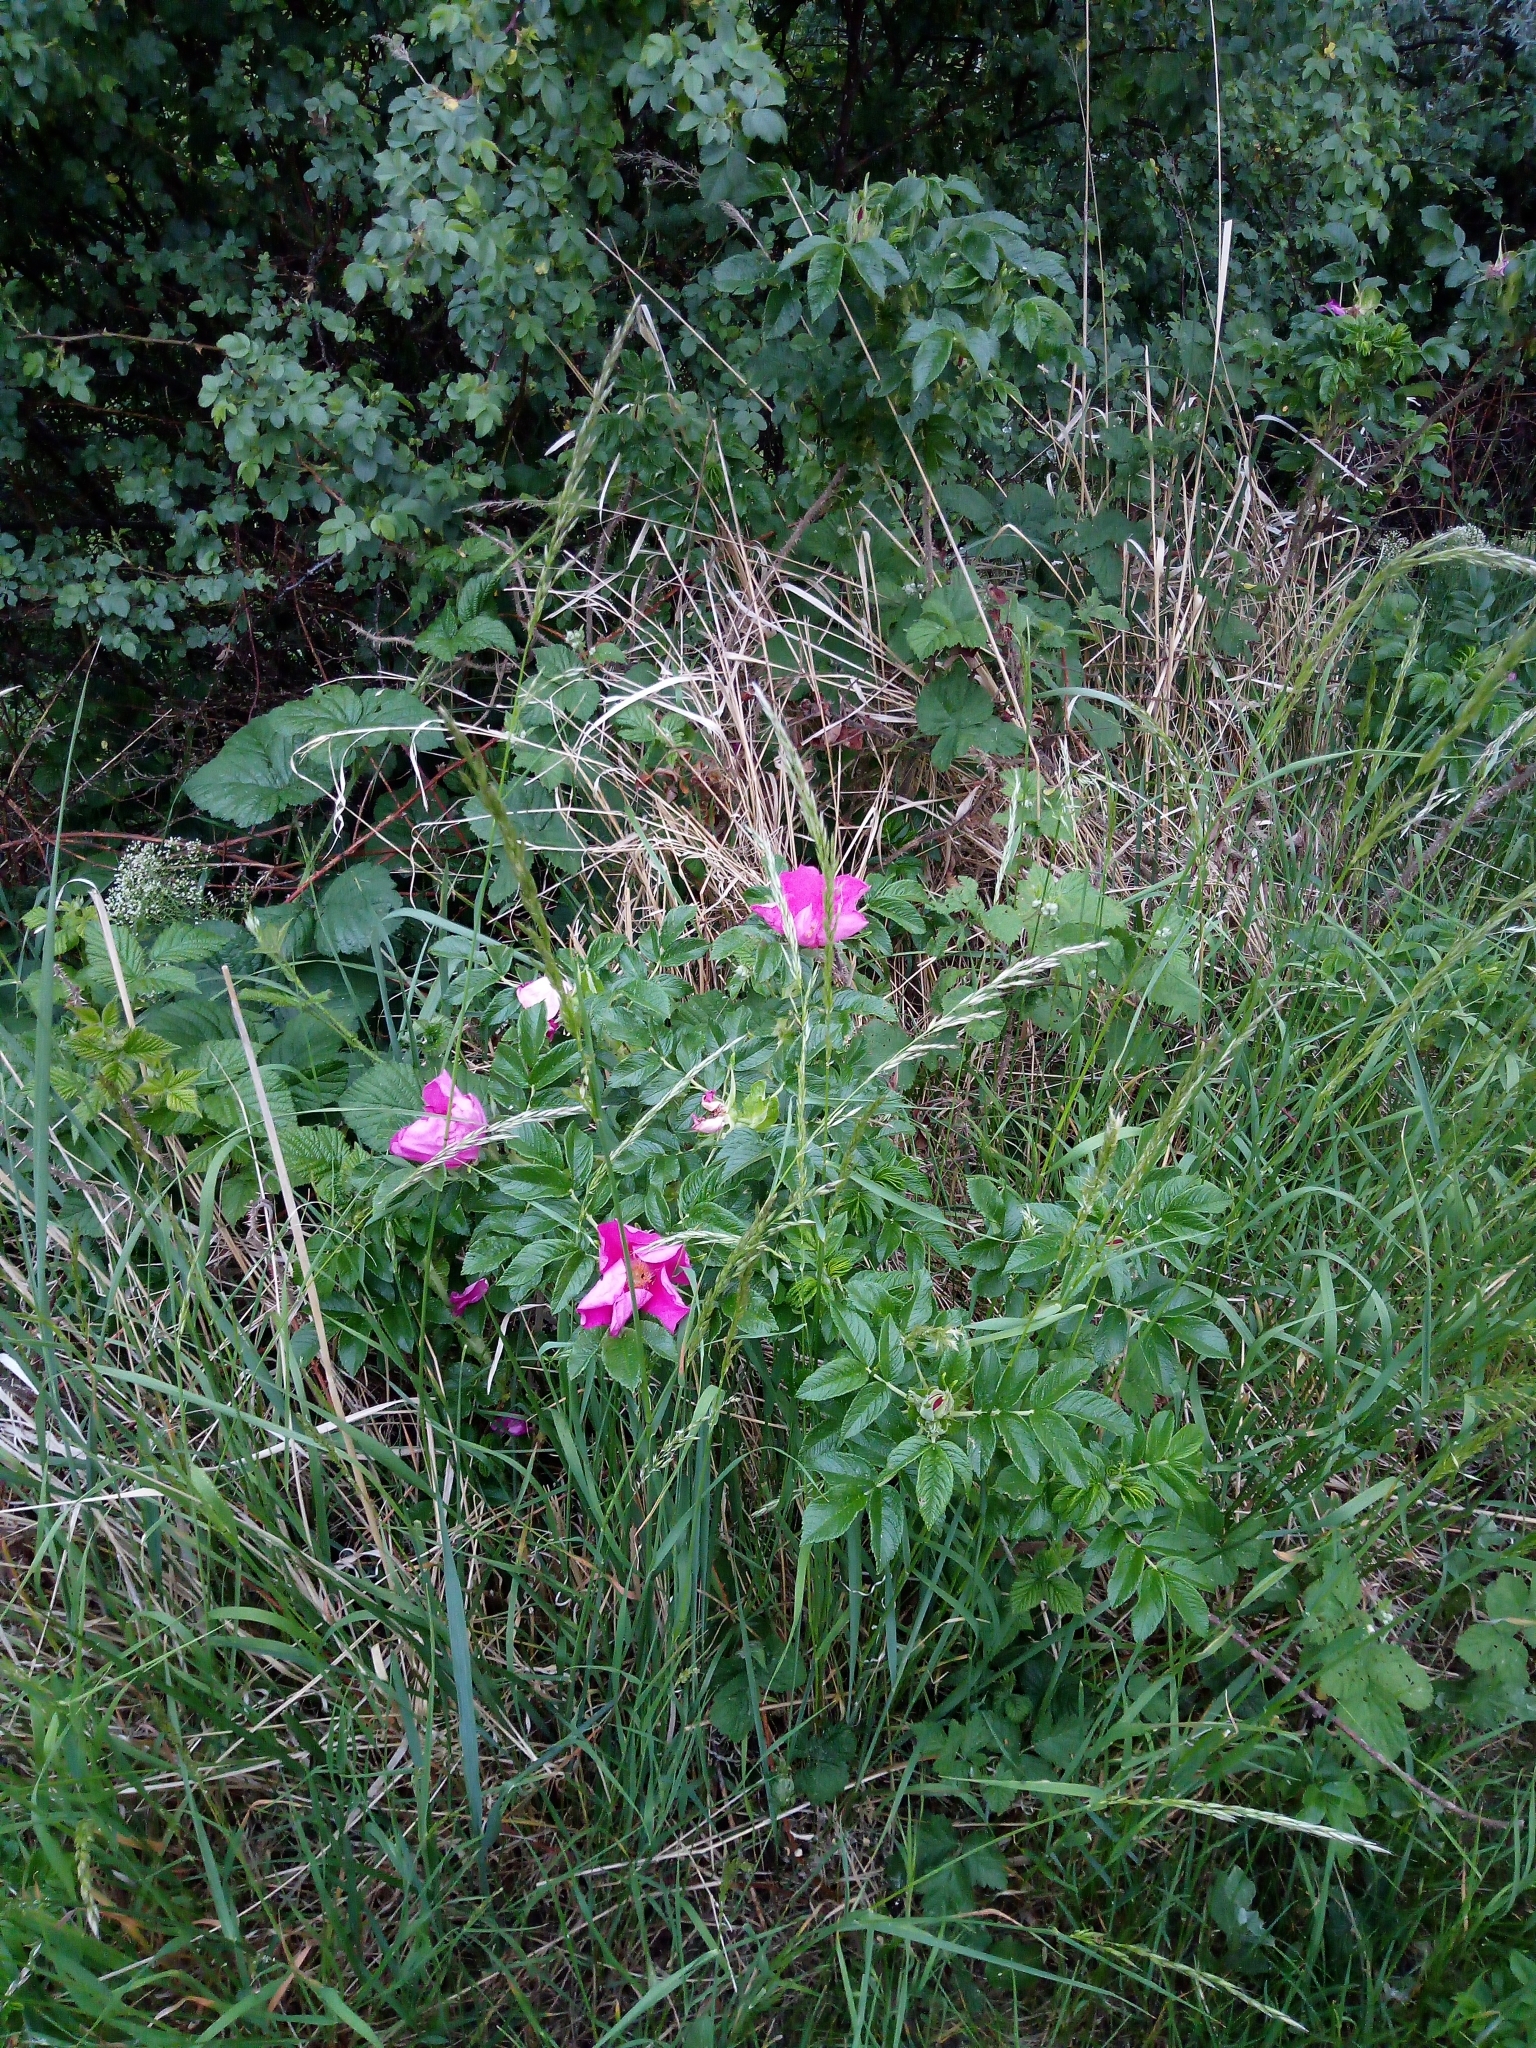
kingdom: Plantae
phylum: Tracheophyta
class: Magnoliopsida
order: Rosales
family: Rosaceae
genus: Rosa
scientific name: Rosa rugosa
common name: Japanese rose
